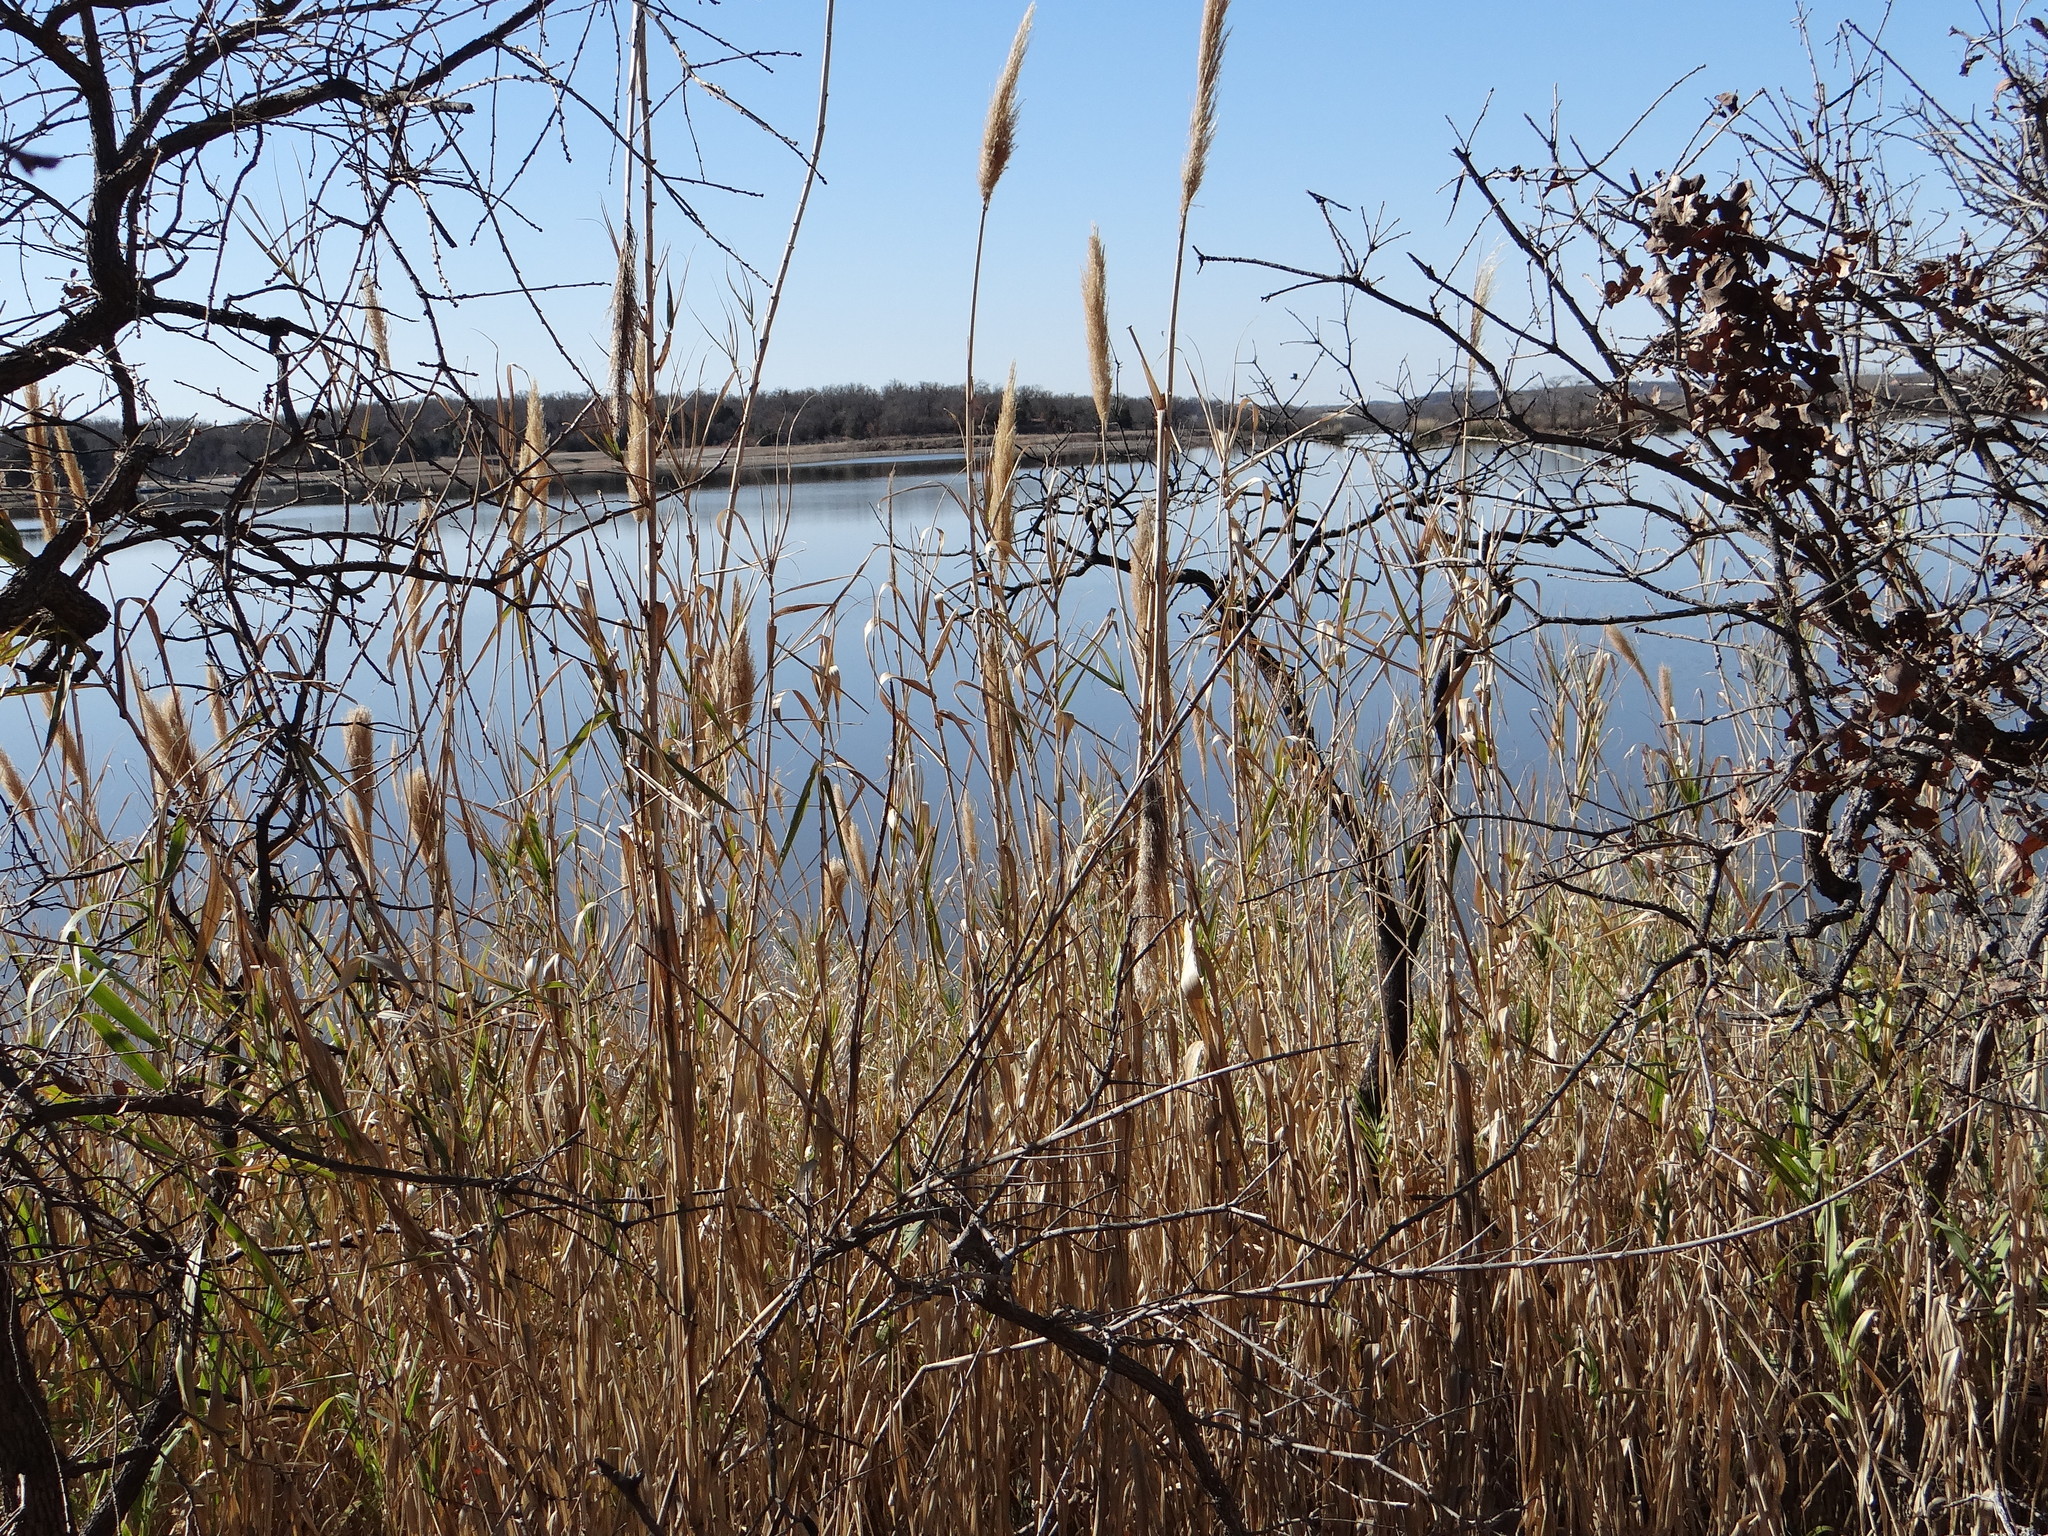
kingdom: Plantae
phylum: Tracheophyta
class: Liliopsida
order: Poales
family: Poaceae
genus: Arundo
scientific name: Arundo donax
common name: Giant reed
